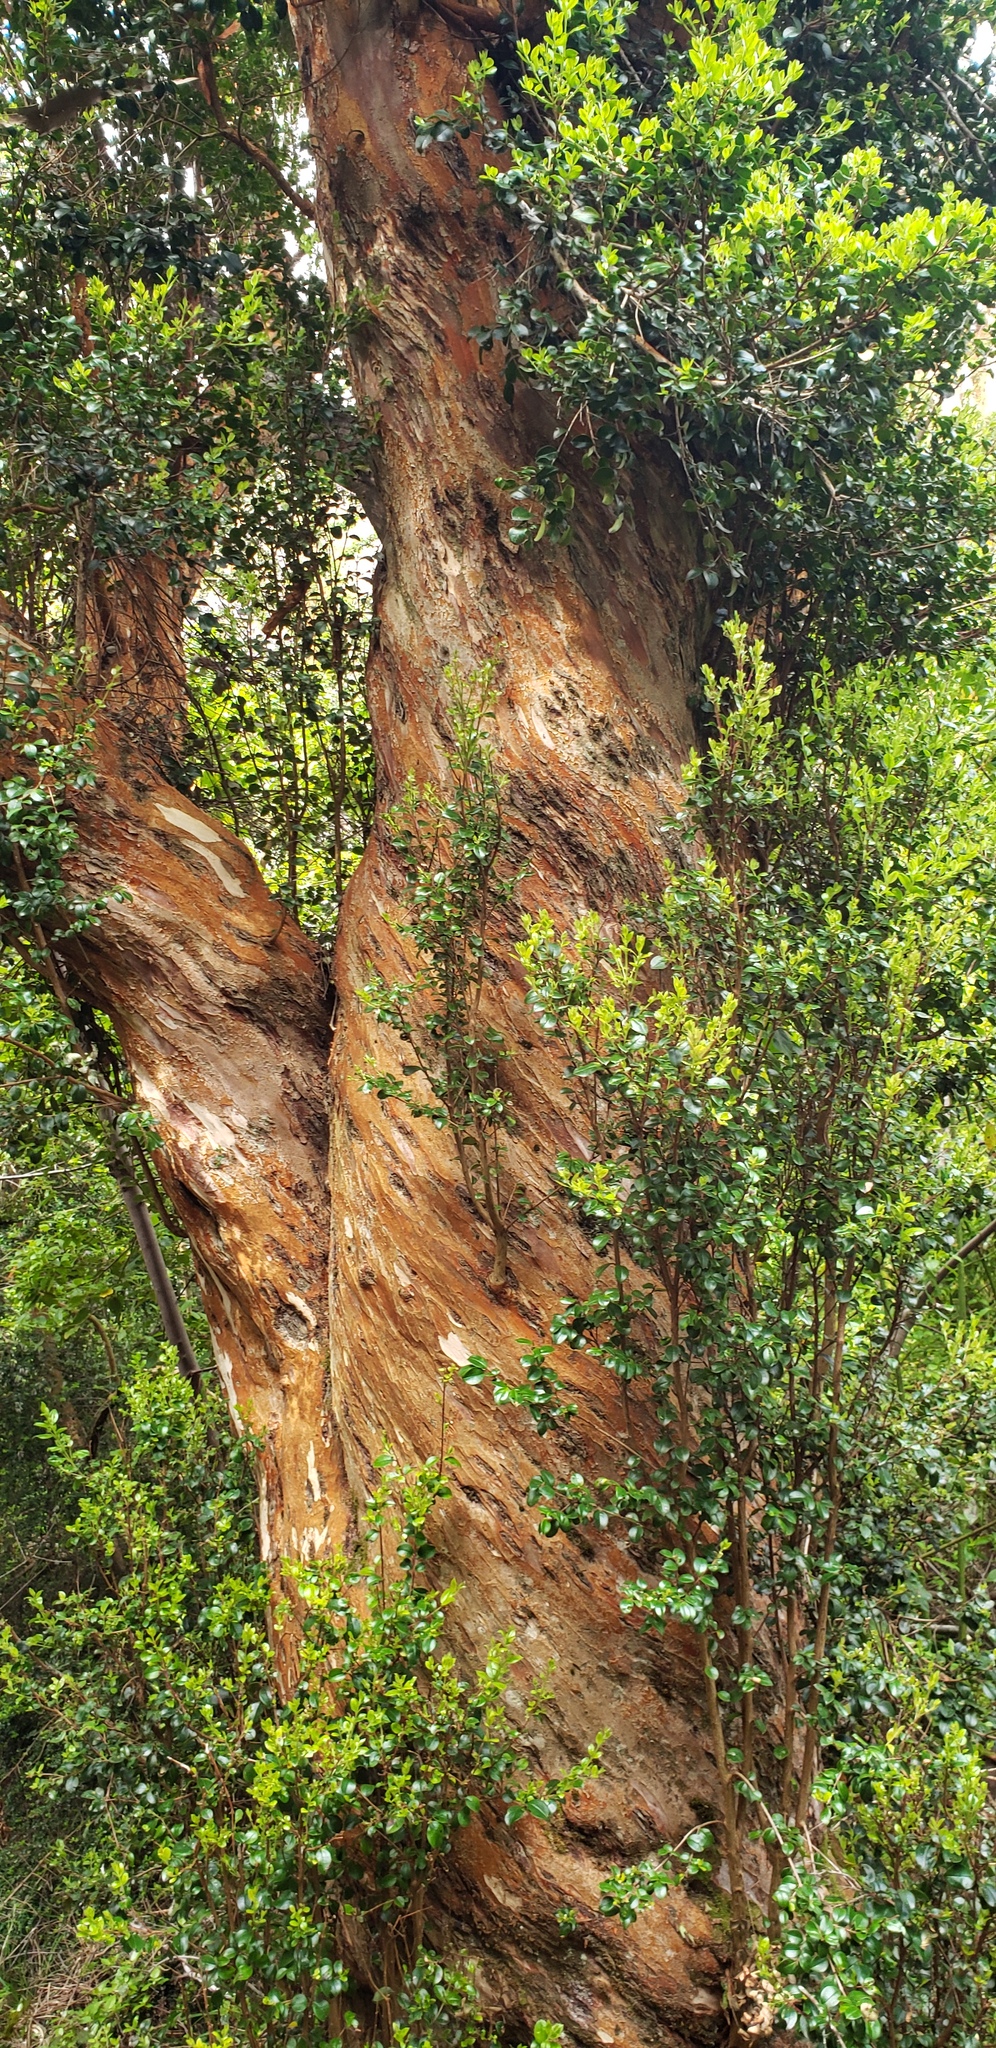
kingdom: Plantae
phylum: Tracheophyta
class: Magnoliopsida
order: Myrtales
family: Myrtaceae
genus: Luma
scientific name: Luma apiculata
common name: Chilean myrtle
